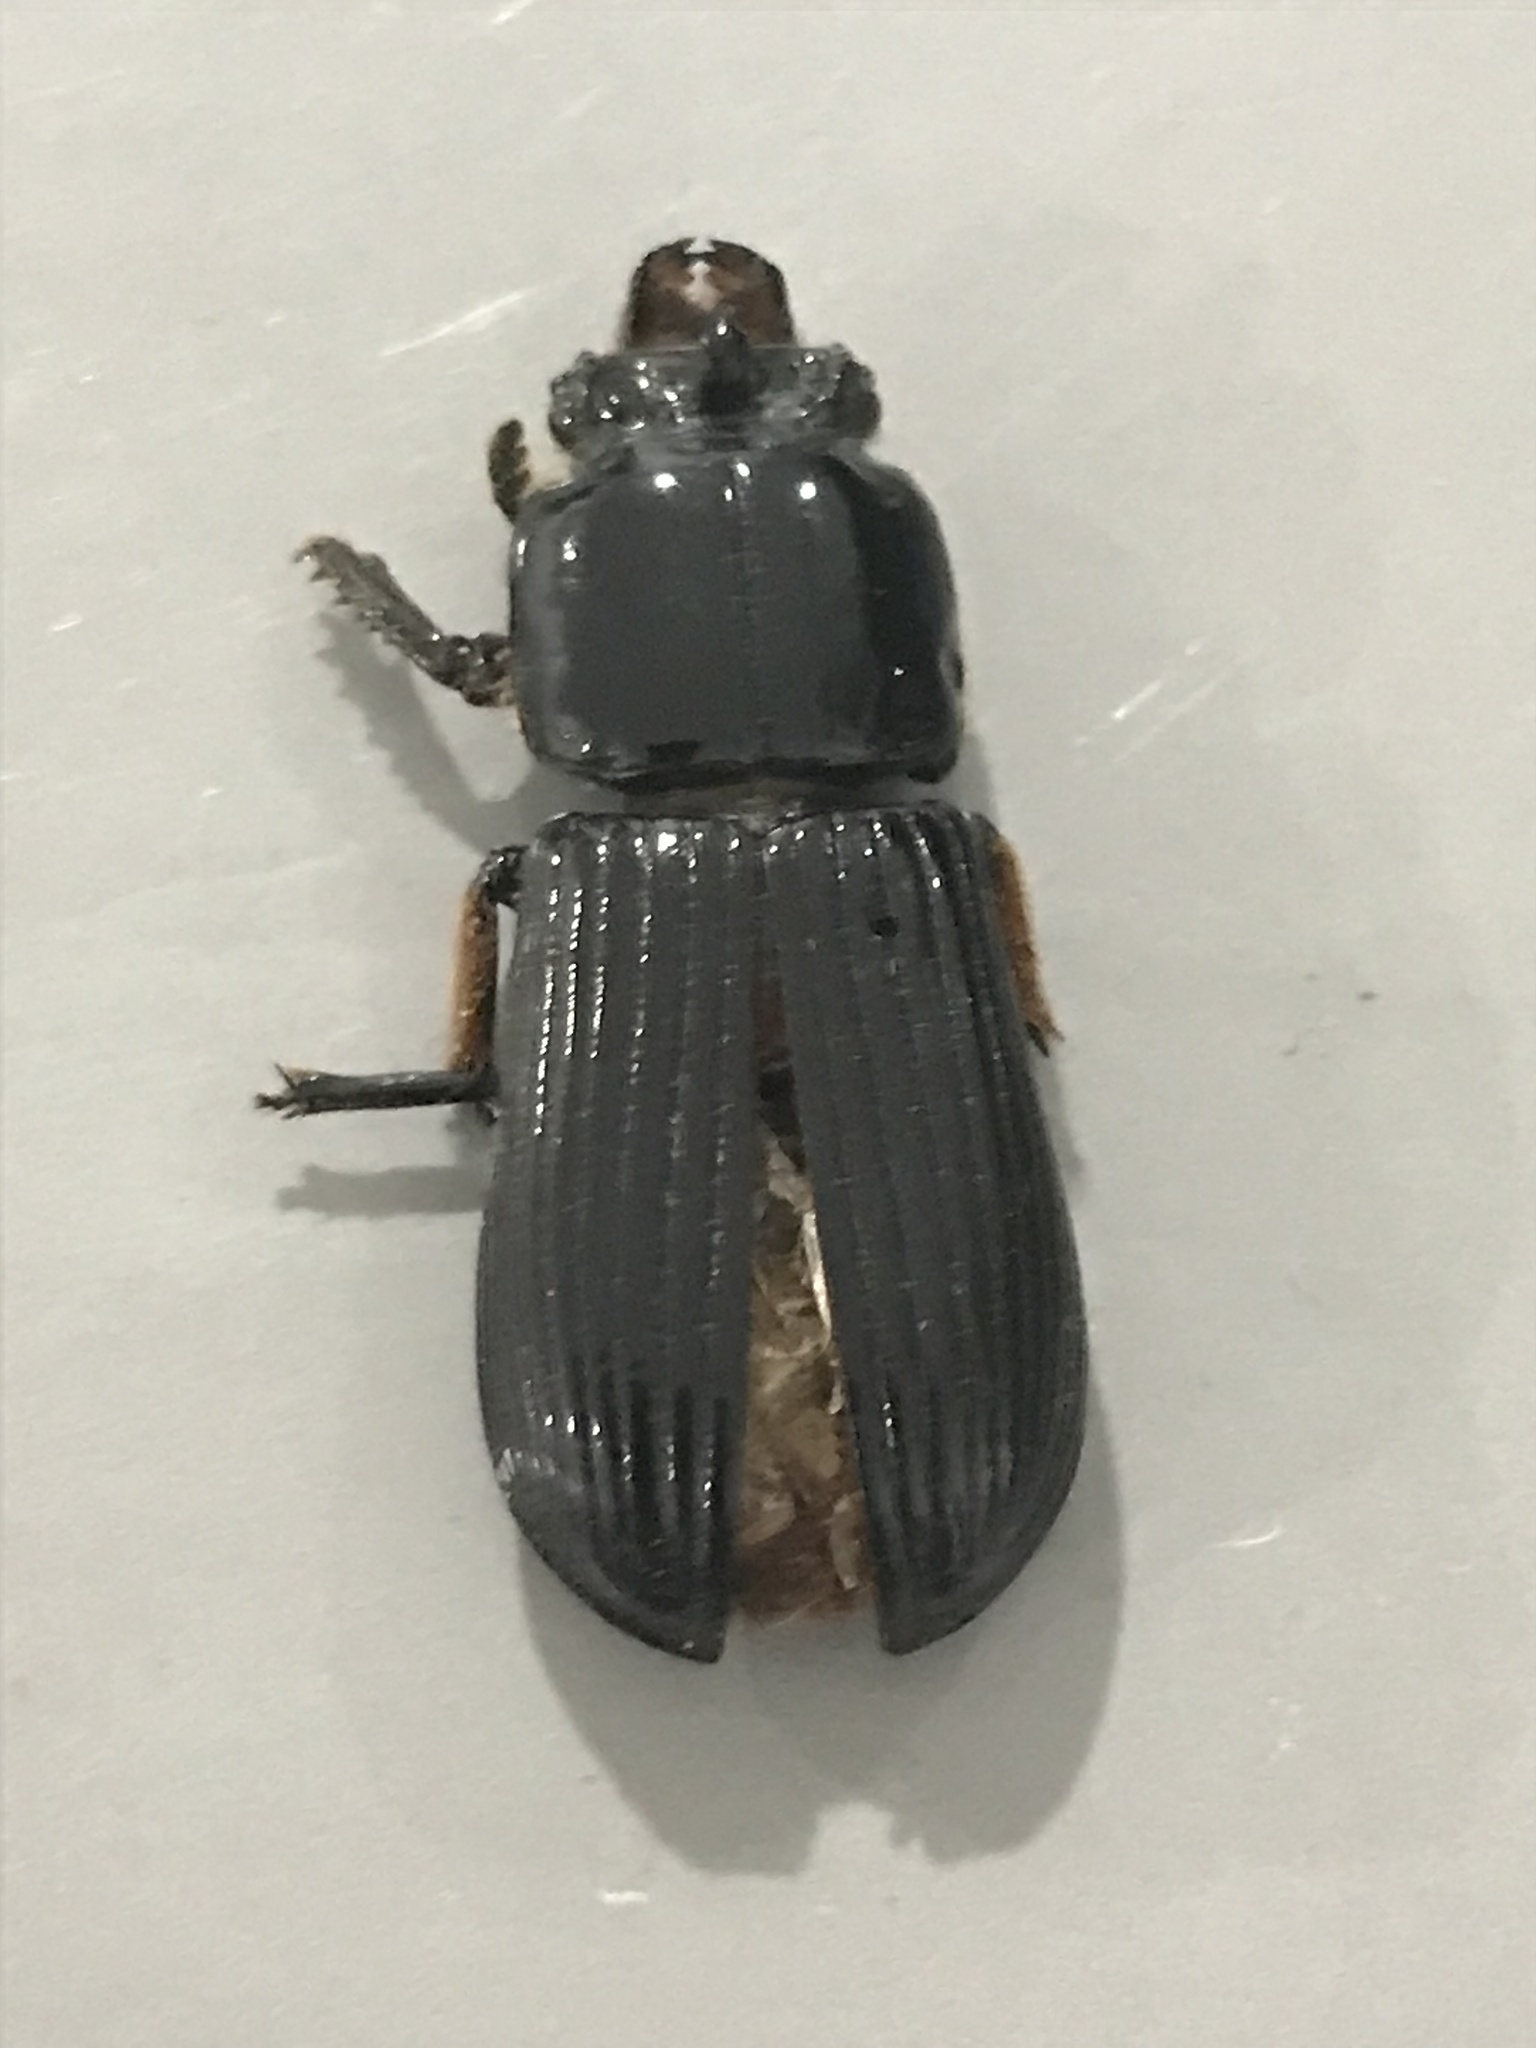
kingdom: Animalia
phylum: Arthropoda
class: Insecta
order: Coleoptera
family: Passalidae
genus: Odontotaenius
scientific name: Odontotaenius disjunctus
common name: Patent leather beetle
